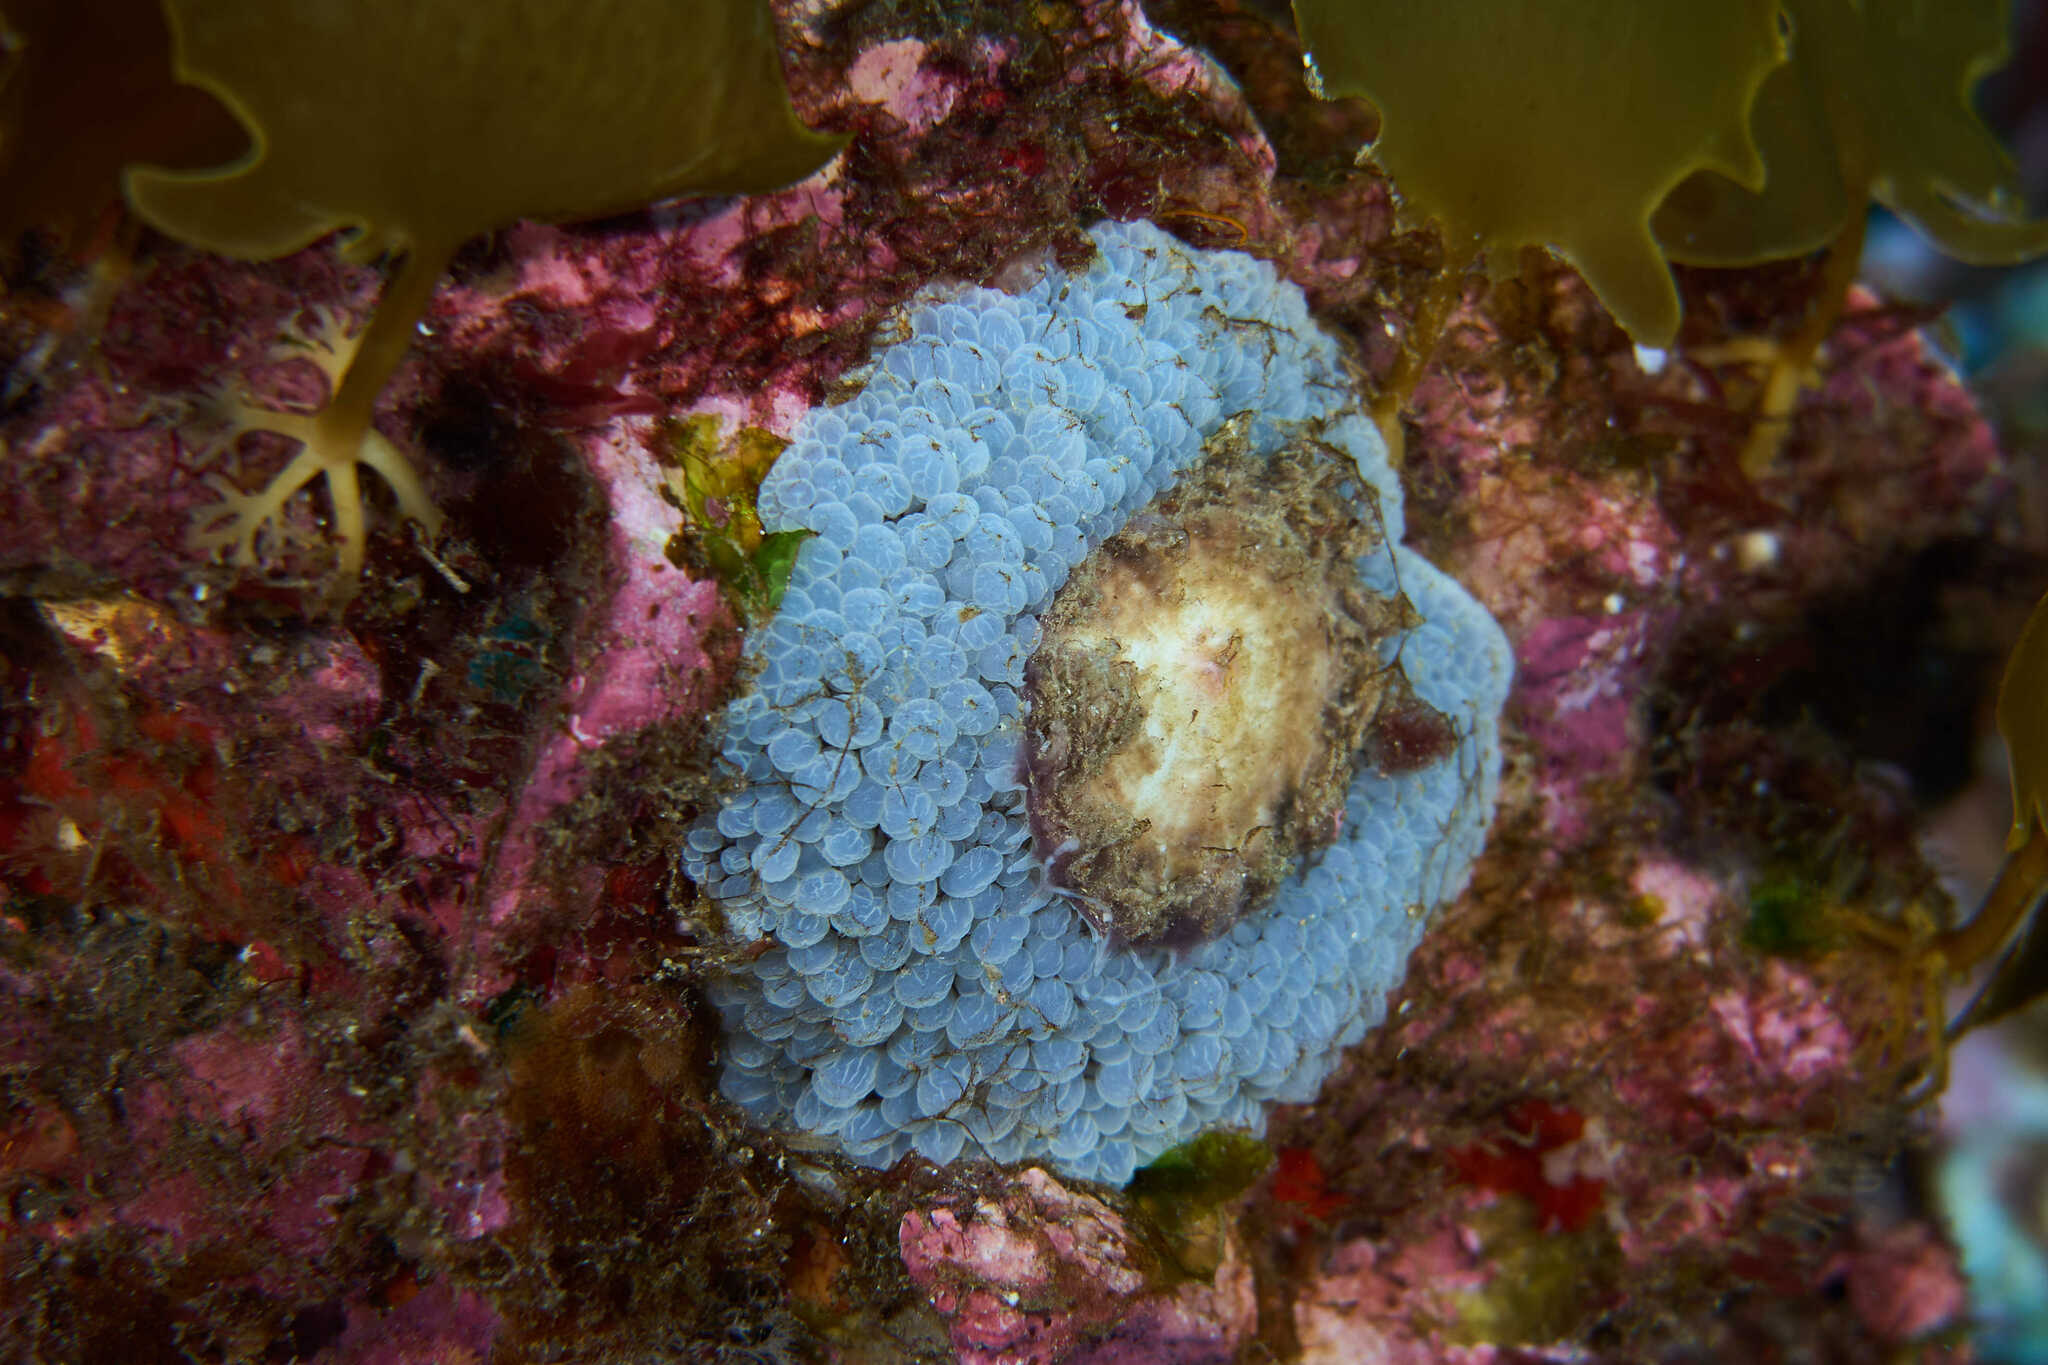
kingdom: Animalia
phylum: Mollusca
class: Gastropoda
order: Umbraculida
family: Umbraculidae
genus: Umbraculum
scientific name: Umbraculum umbraculum
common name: Atlantic umbrella slug
